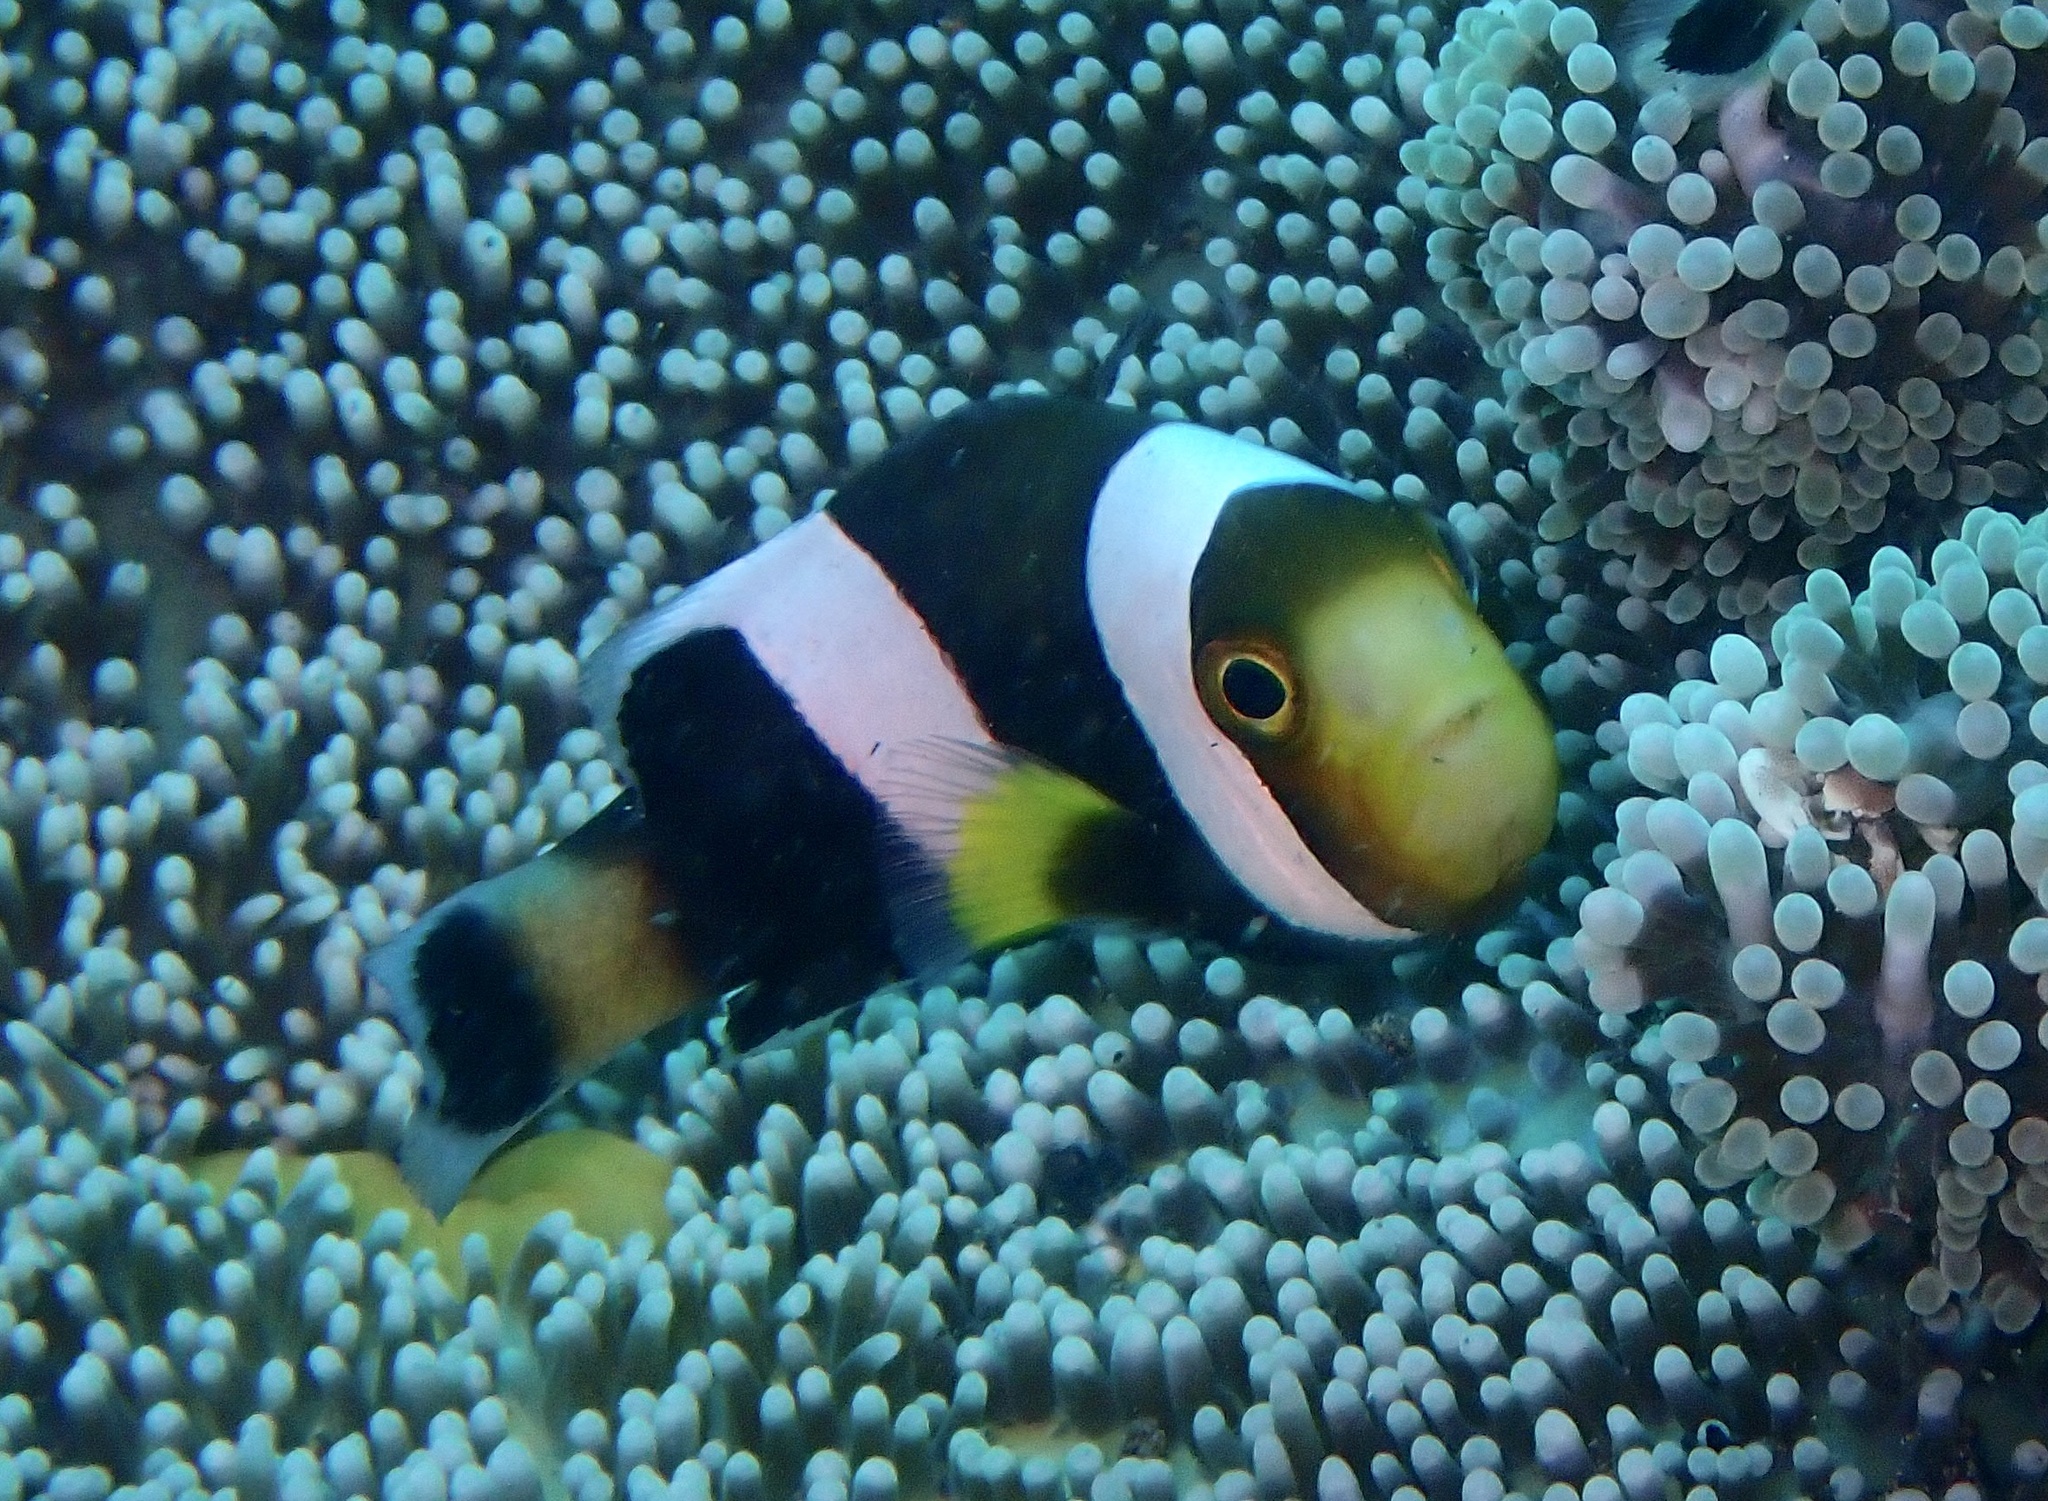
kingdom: Animalia
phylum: Chordata
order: Perciformes
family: Pomacentridae
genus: Amphiprion
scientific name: Amphiprion polymnus
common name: Saddleback anemonefish
